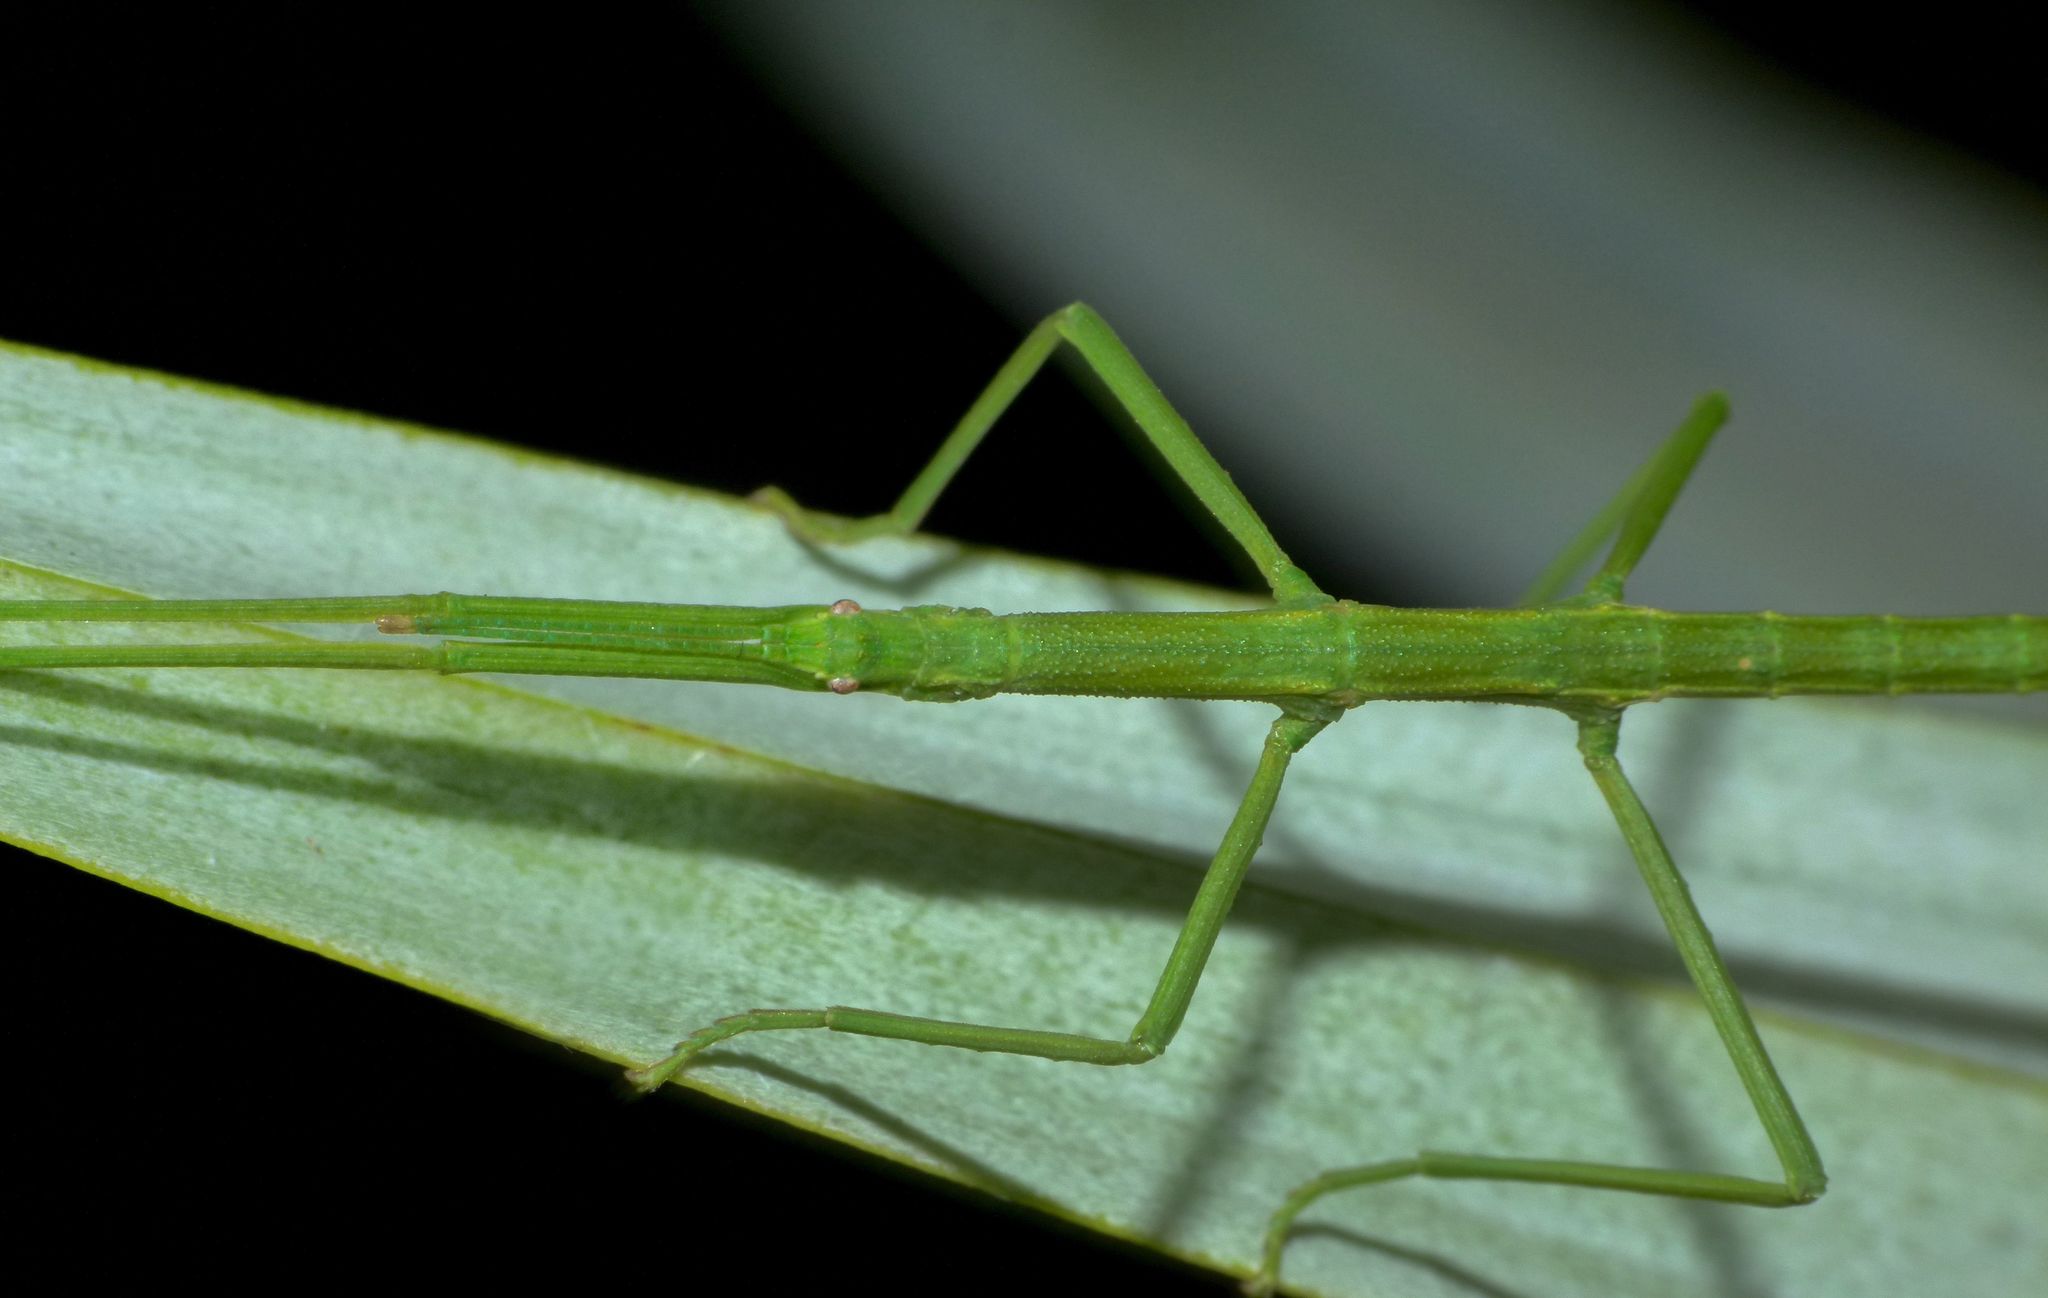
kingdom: Animalia
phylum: Arthropoda
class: Insecta
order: Phasmida
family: Phasmatidae
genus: Niveaphasma
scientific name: Niveaphasma annulatum
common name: Hutton's stick insect
